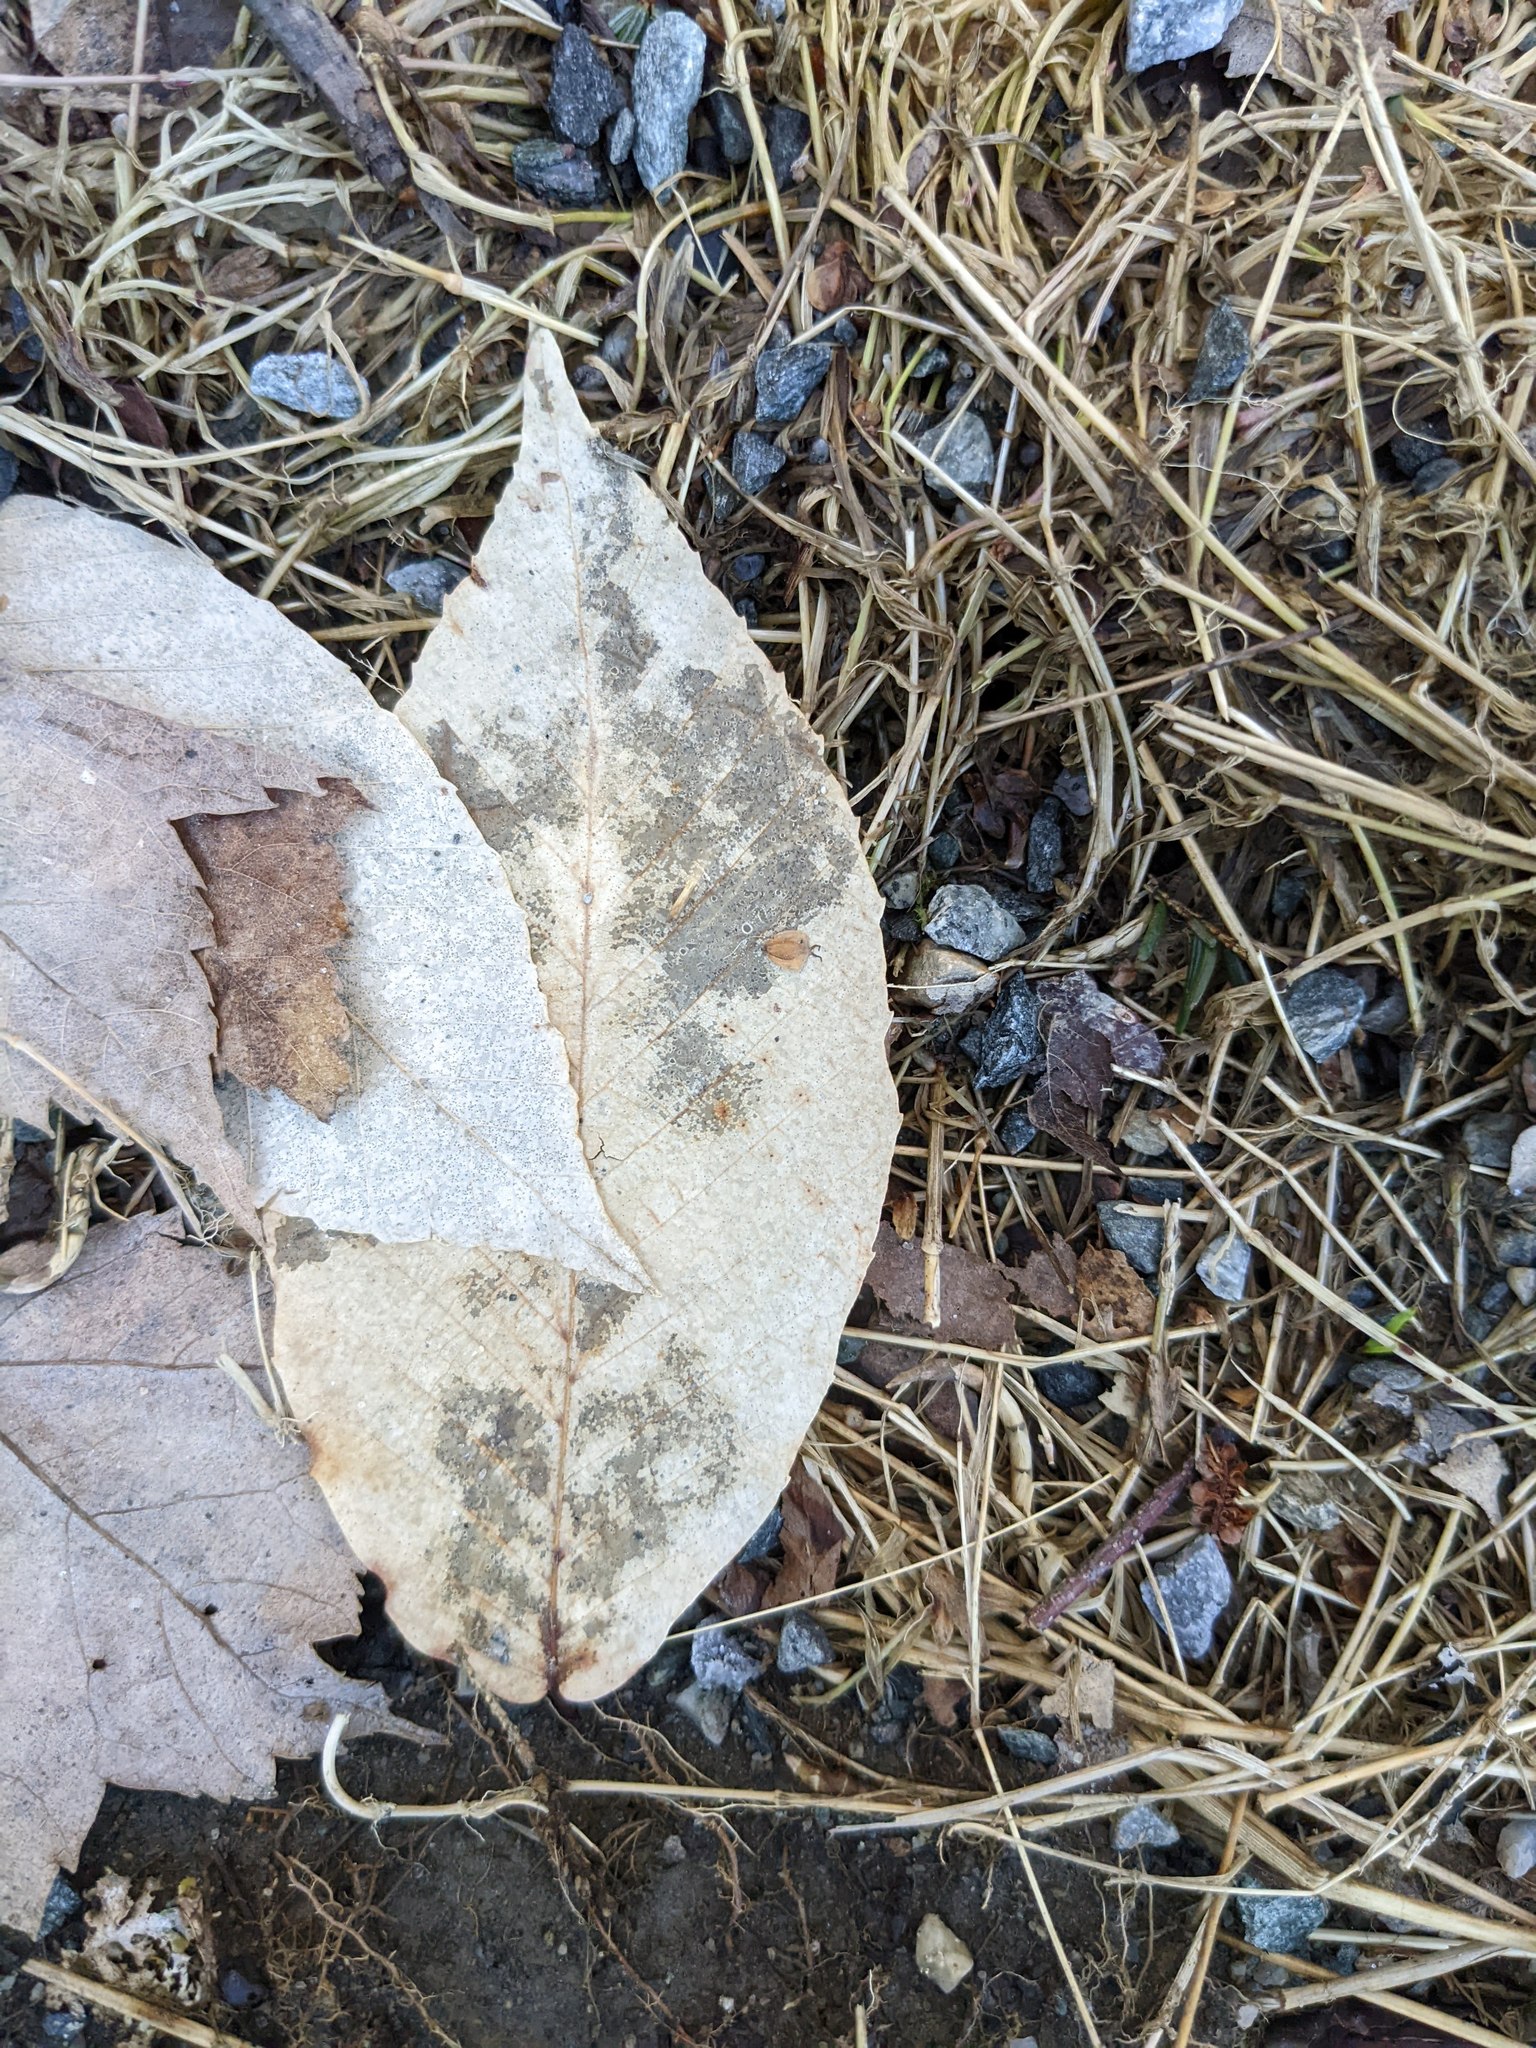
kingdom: Plantae
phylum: Tracheophyta
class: Magnoliopsida
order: Fagales
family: Fagaceae
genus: Fagus
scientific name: Fagus grandifolia
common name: American beech
